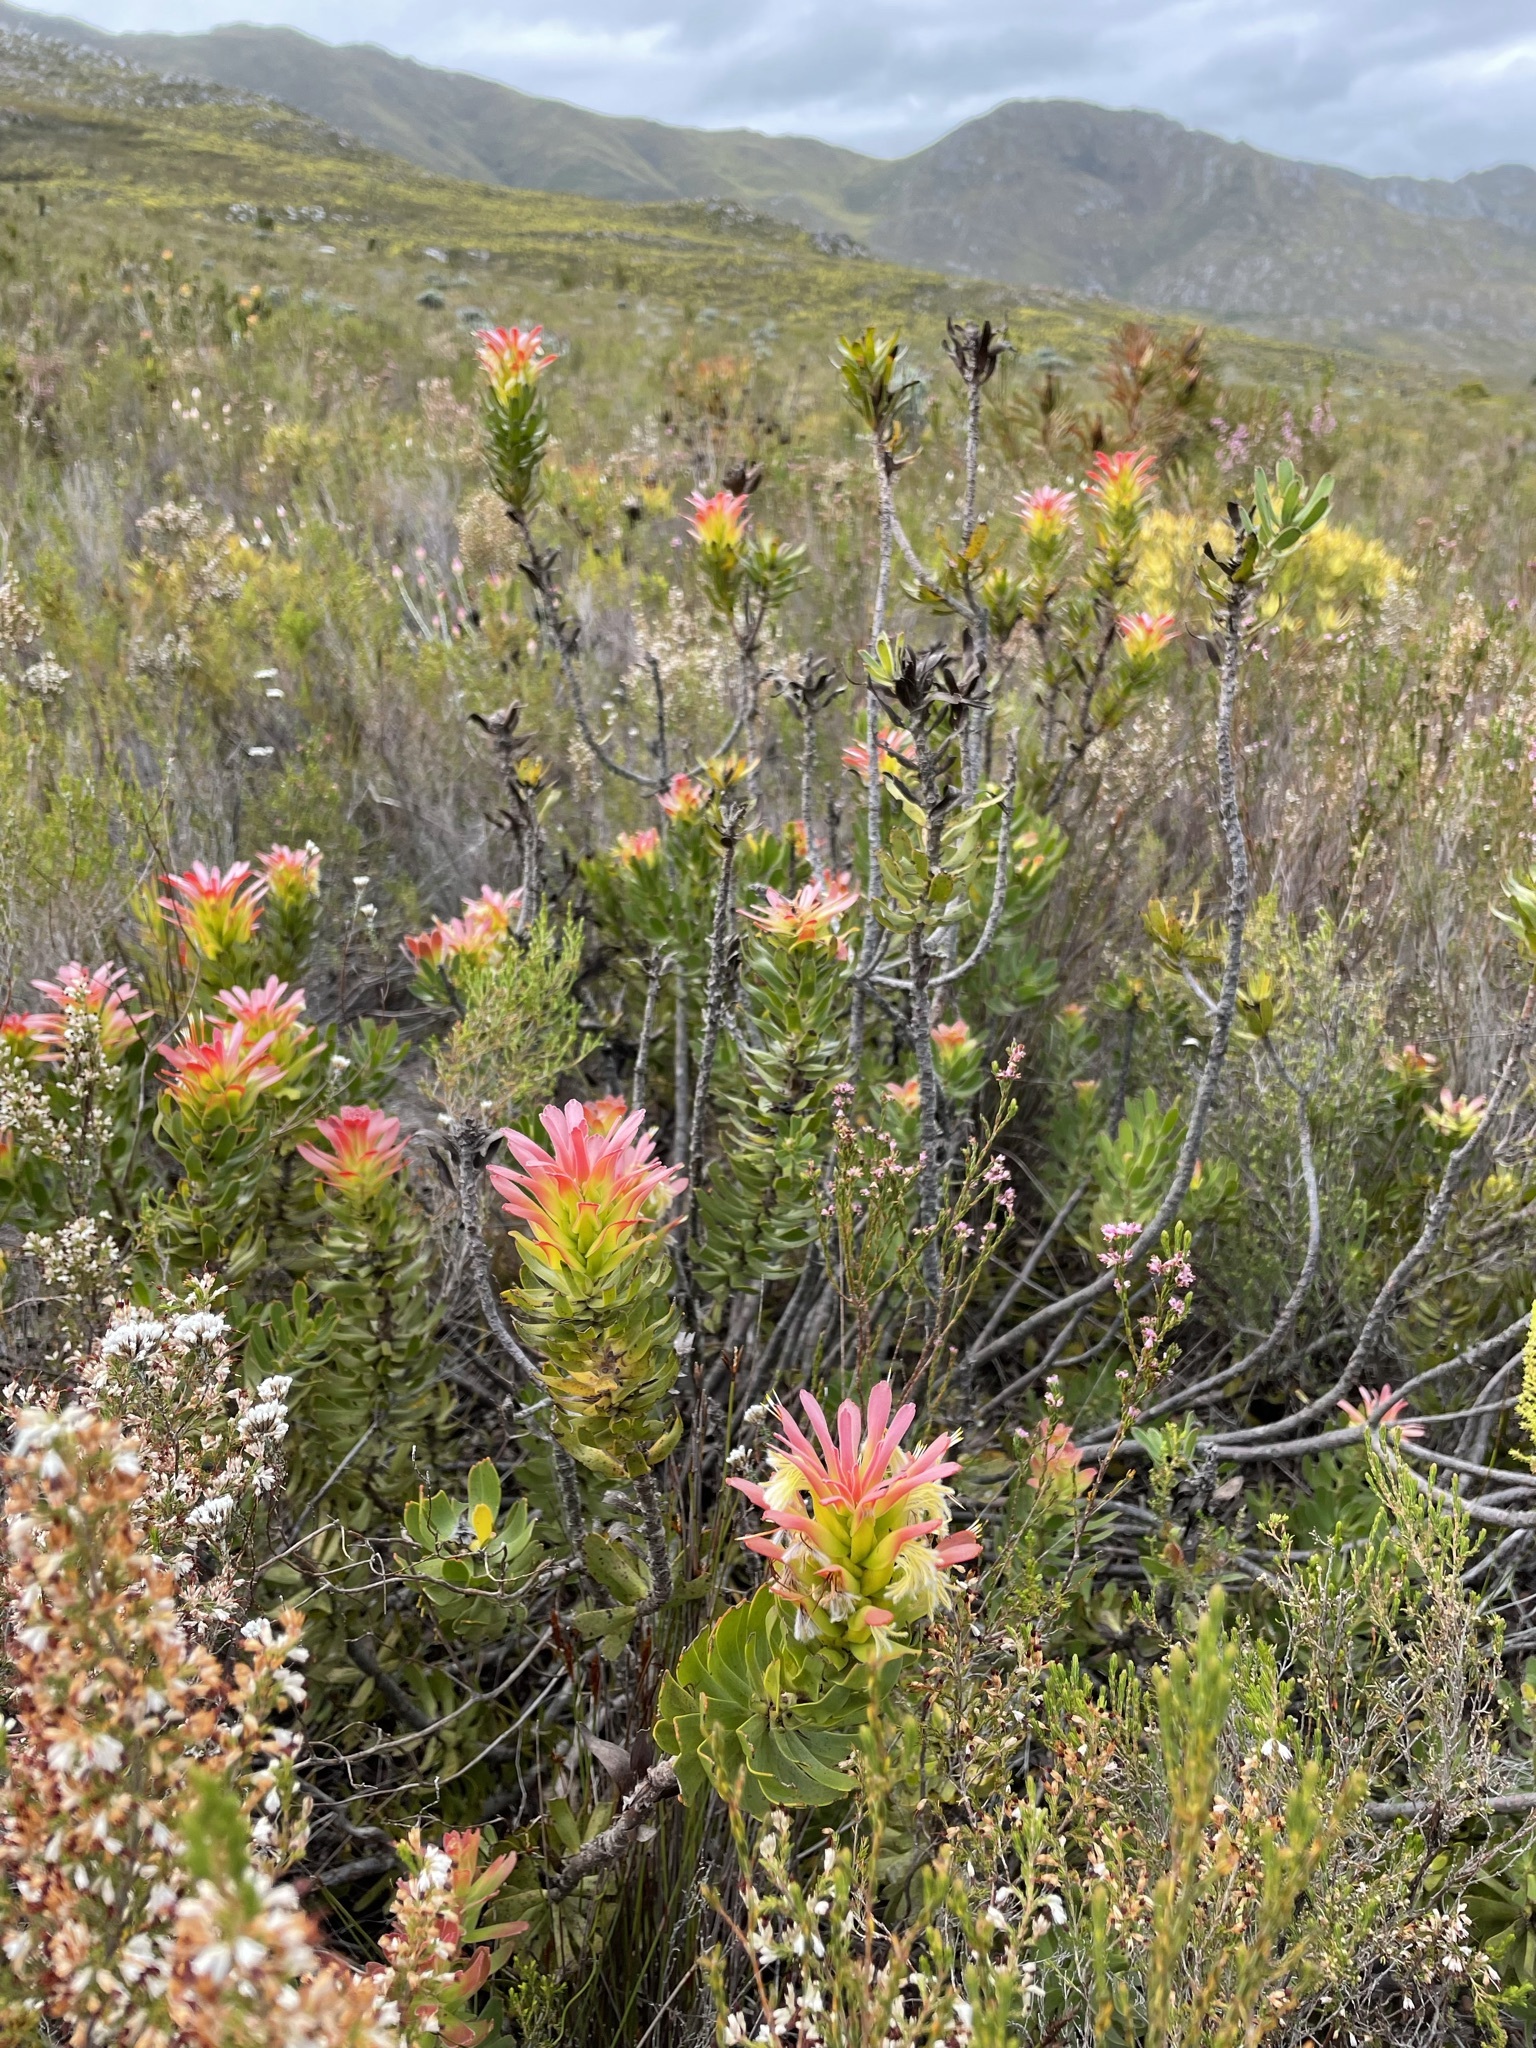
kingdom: Plantae
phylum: Tracheophyta
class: Magnoliopsida
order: Proteales
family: Proteaceae
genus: Mimetes
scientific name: Mimetes cucullatus
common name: Common pagoda
